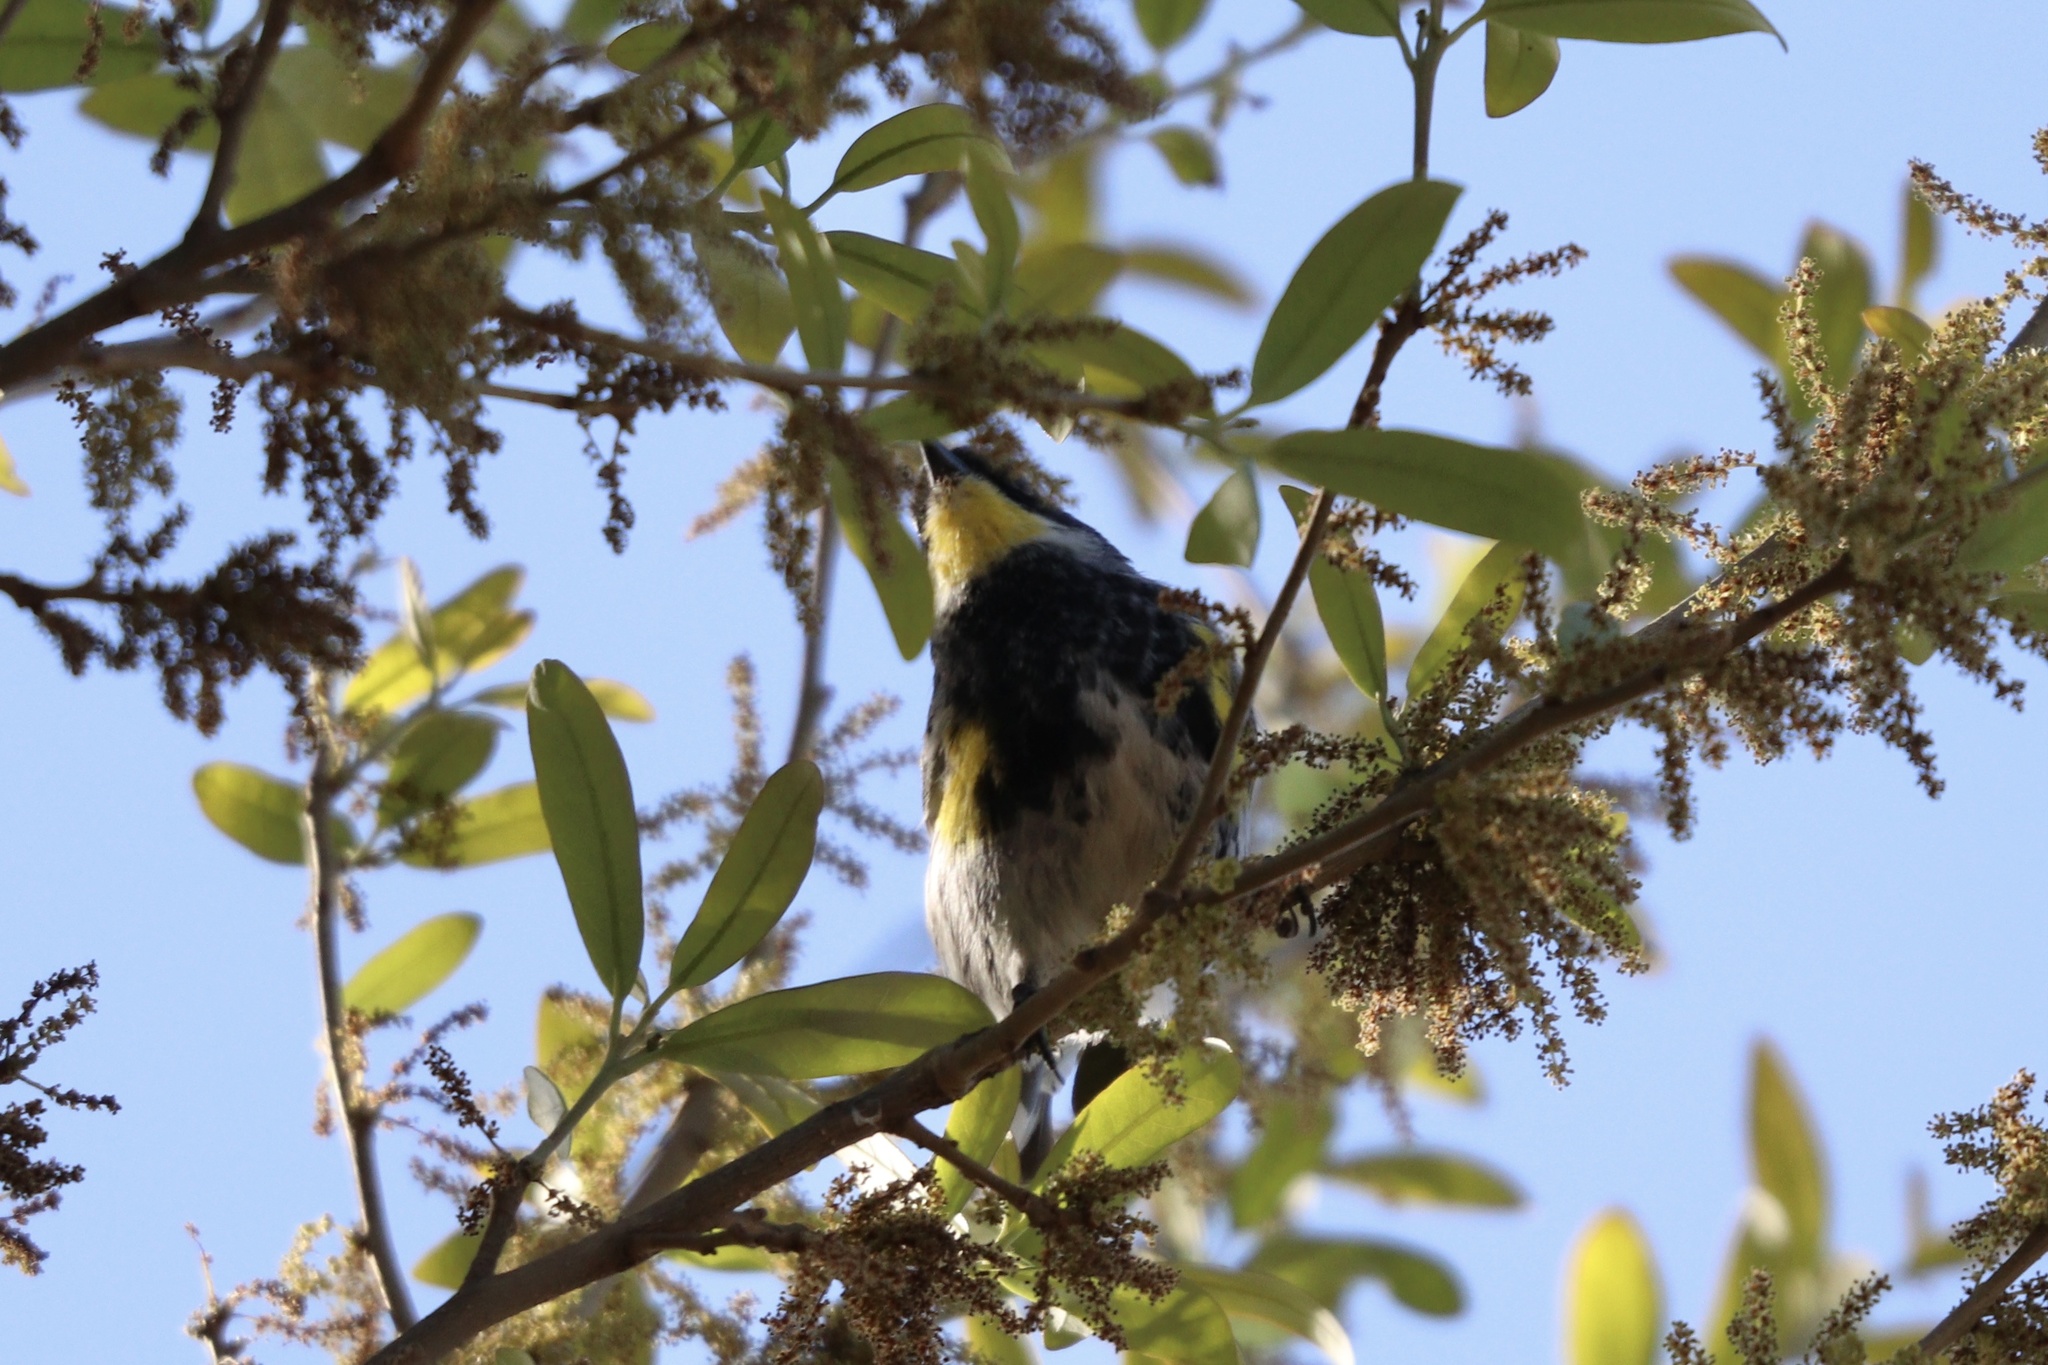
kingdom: Animalia
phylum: Chordata
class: Aves
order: Passeriformes
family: Parulidae
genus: Setophaga
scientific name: Setophaga coronata
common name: Myrtle warbler
